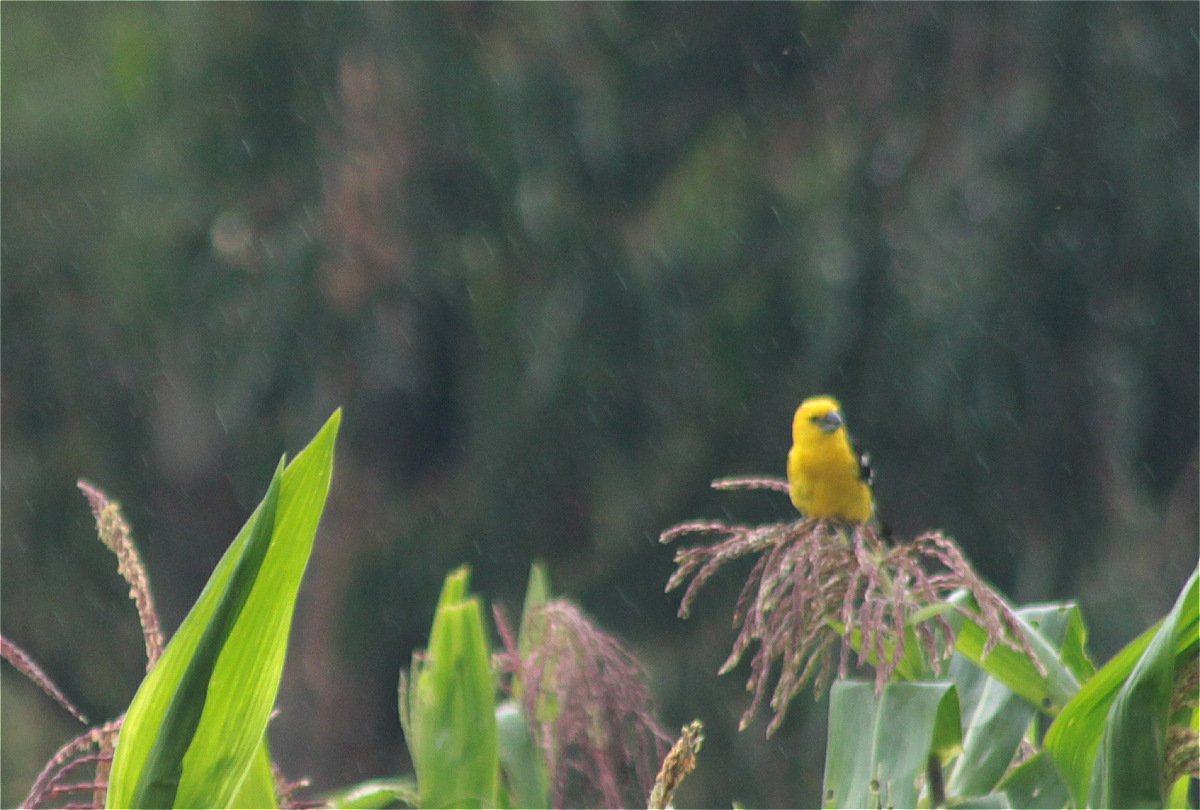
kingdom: Animalia
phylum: Chordata
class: Aves
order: Passeriformes
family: Cardinalidae
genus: Pheucticus
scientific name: Pheucticus chrysogaster
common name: Golden grosbeak
